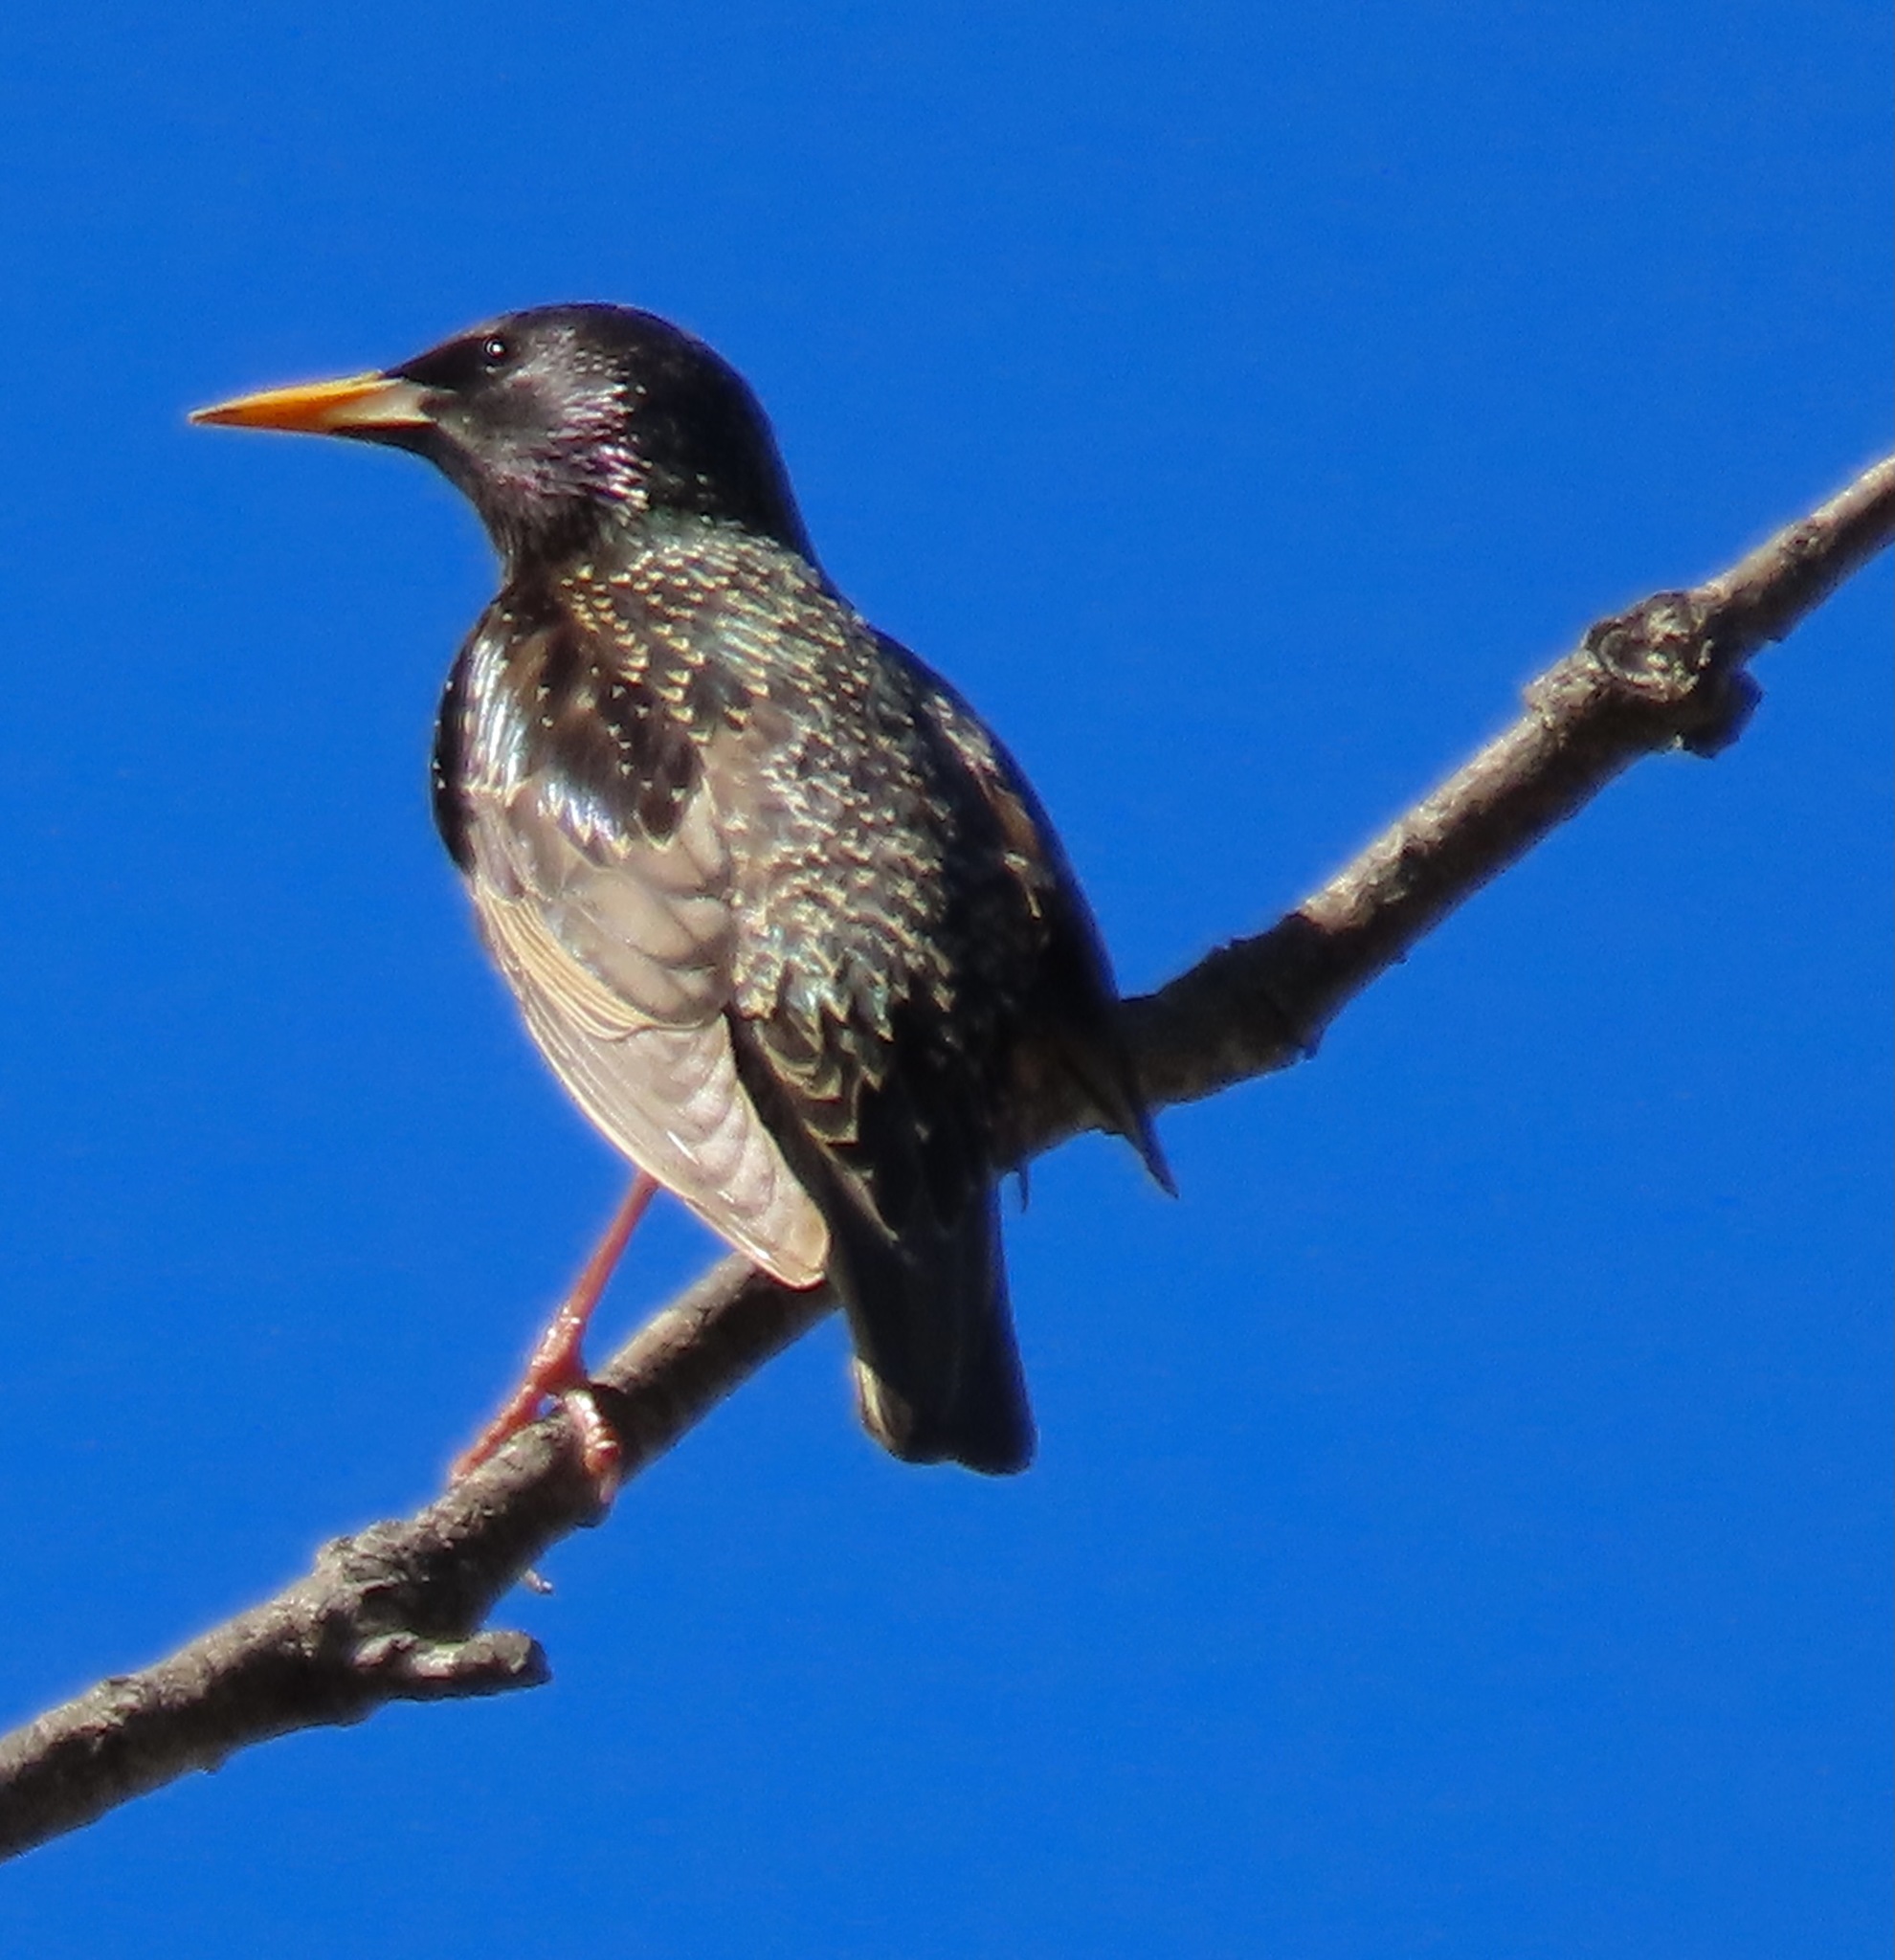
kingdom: Animalia
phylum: Chordata
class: Aves
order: Passeriformes
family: Sturnidae
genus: Sturnus
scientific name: Sturnus vulgaris
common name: Common starling
